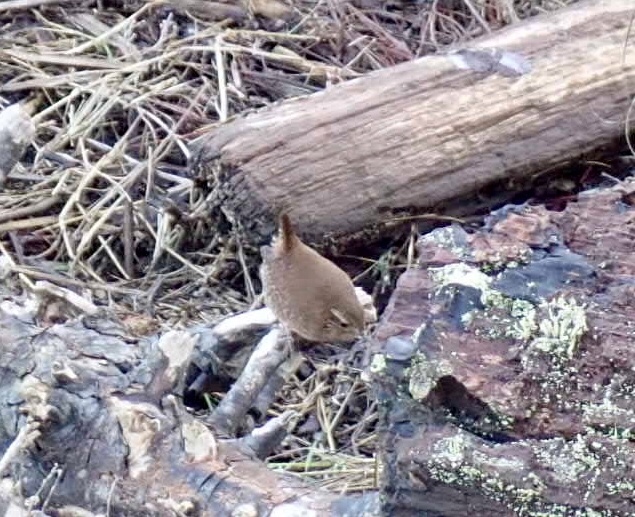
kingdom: Animalia
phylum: Chordata
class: Aves
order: Passeriformes
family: Troglodytidae
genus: Troglodytes
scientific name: Troglodytes pacificus
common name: Pacific wren
